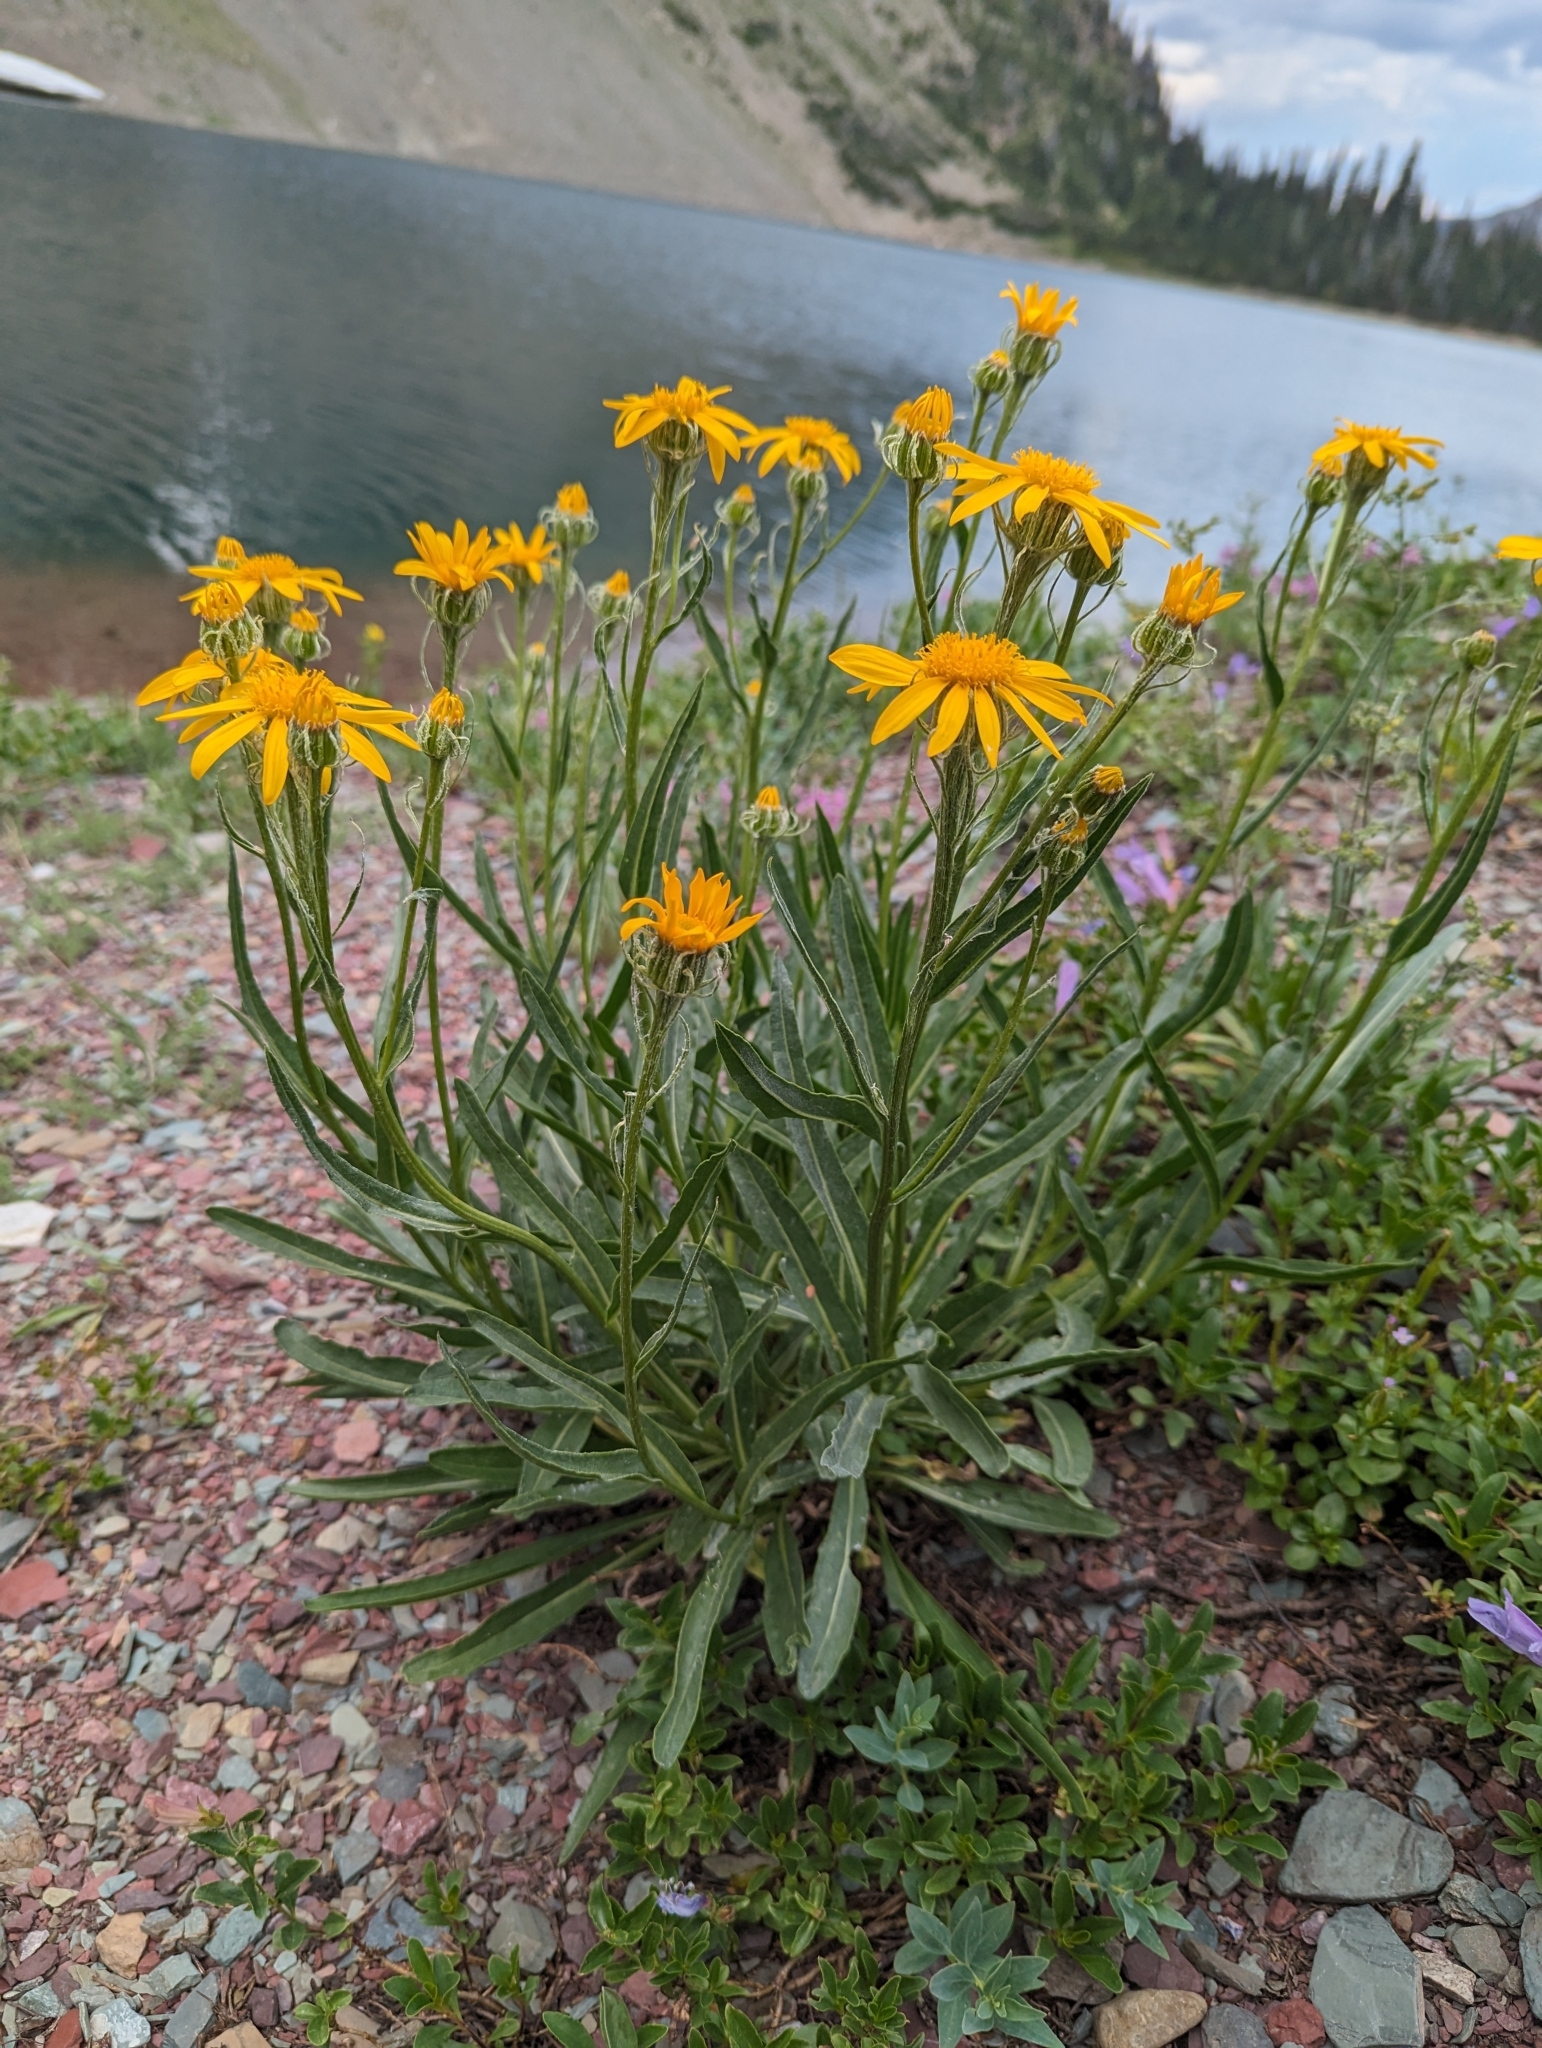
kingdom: Plantae
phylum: Tracheophyta
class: Magnoliopsida
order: Asterales
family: Asteraceae
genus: Senecio
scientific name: Senecio megacephalus
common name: Large-flowered ragwort
